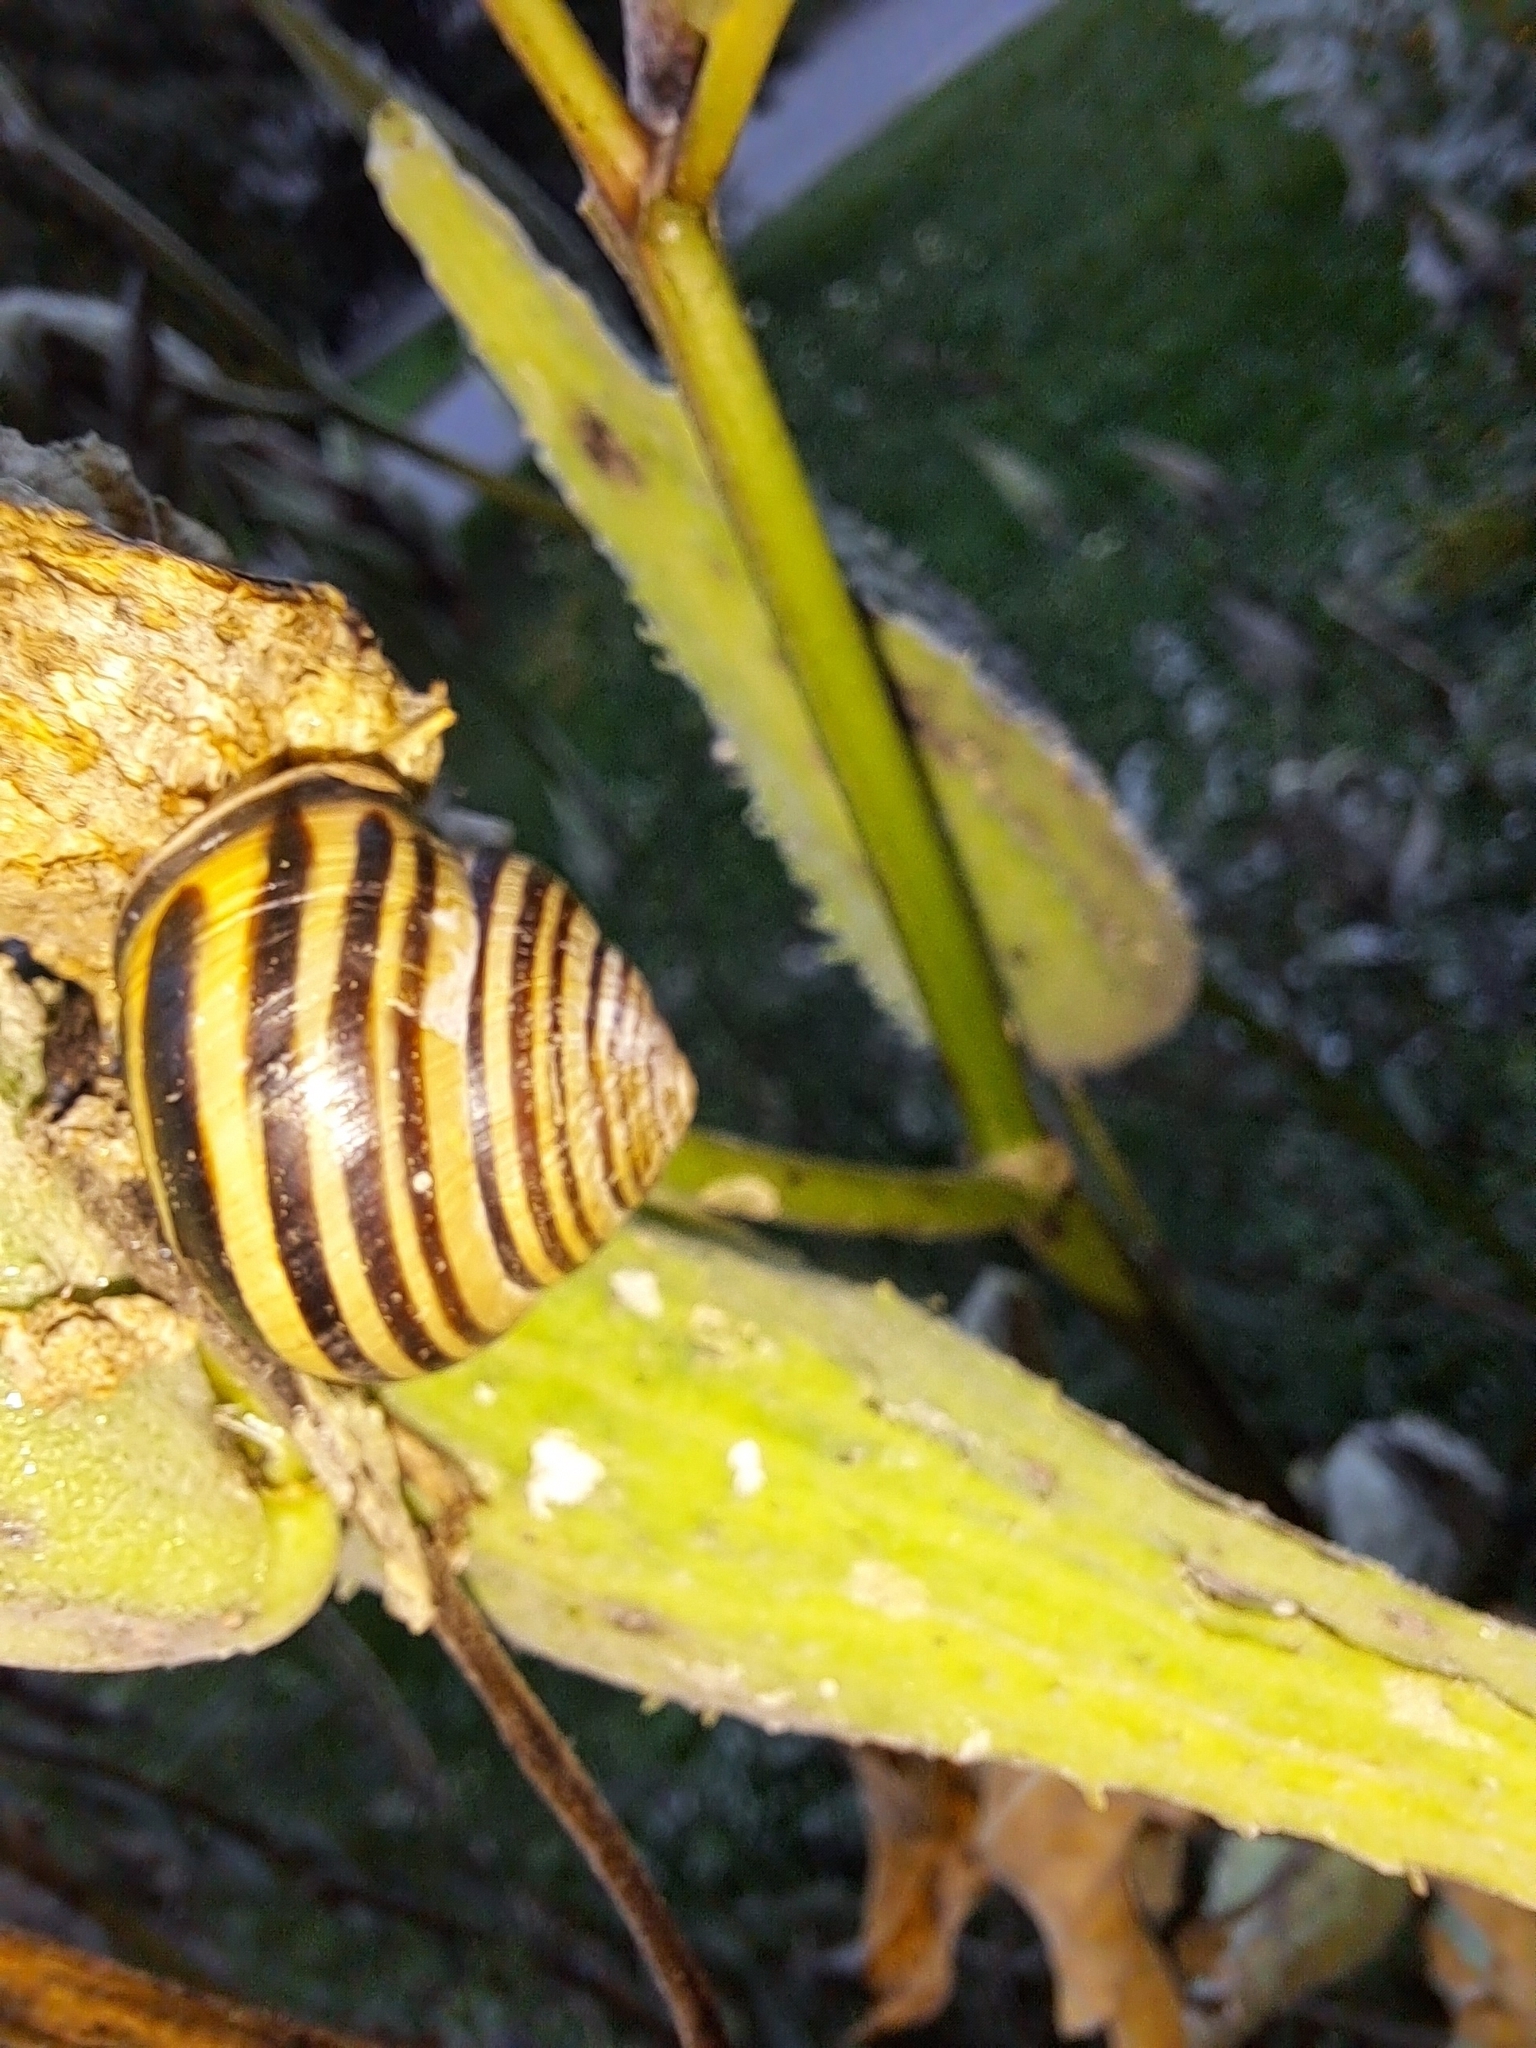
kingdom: Animalia
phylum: Mollusca
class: Gastropoda
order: Stylommatophora
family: Helicidae
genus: Cepaea
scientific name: Cepaea nemoralis
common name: Grovesnail
